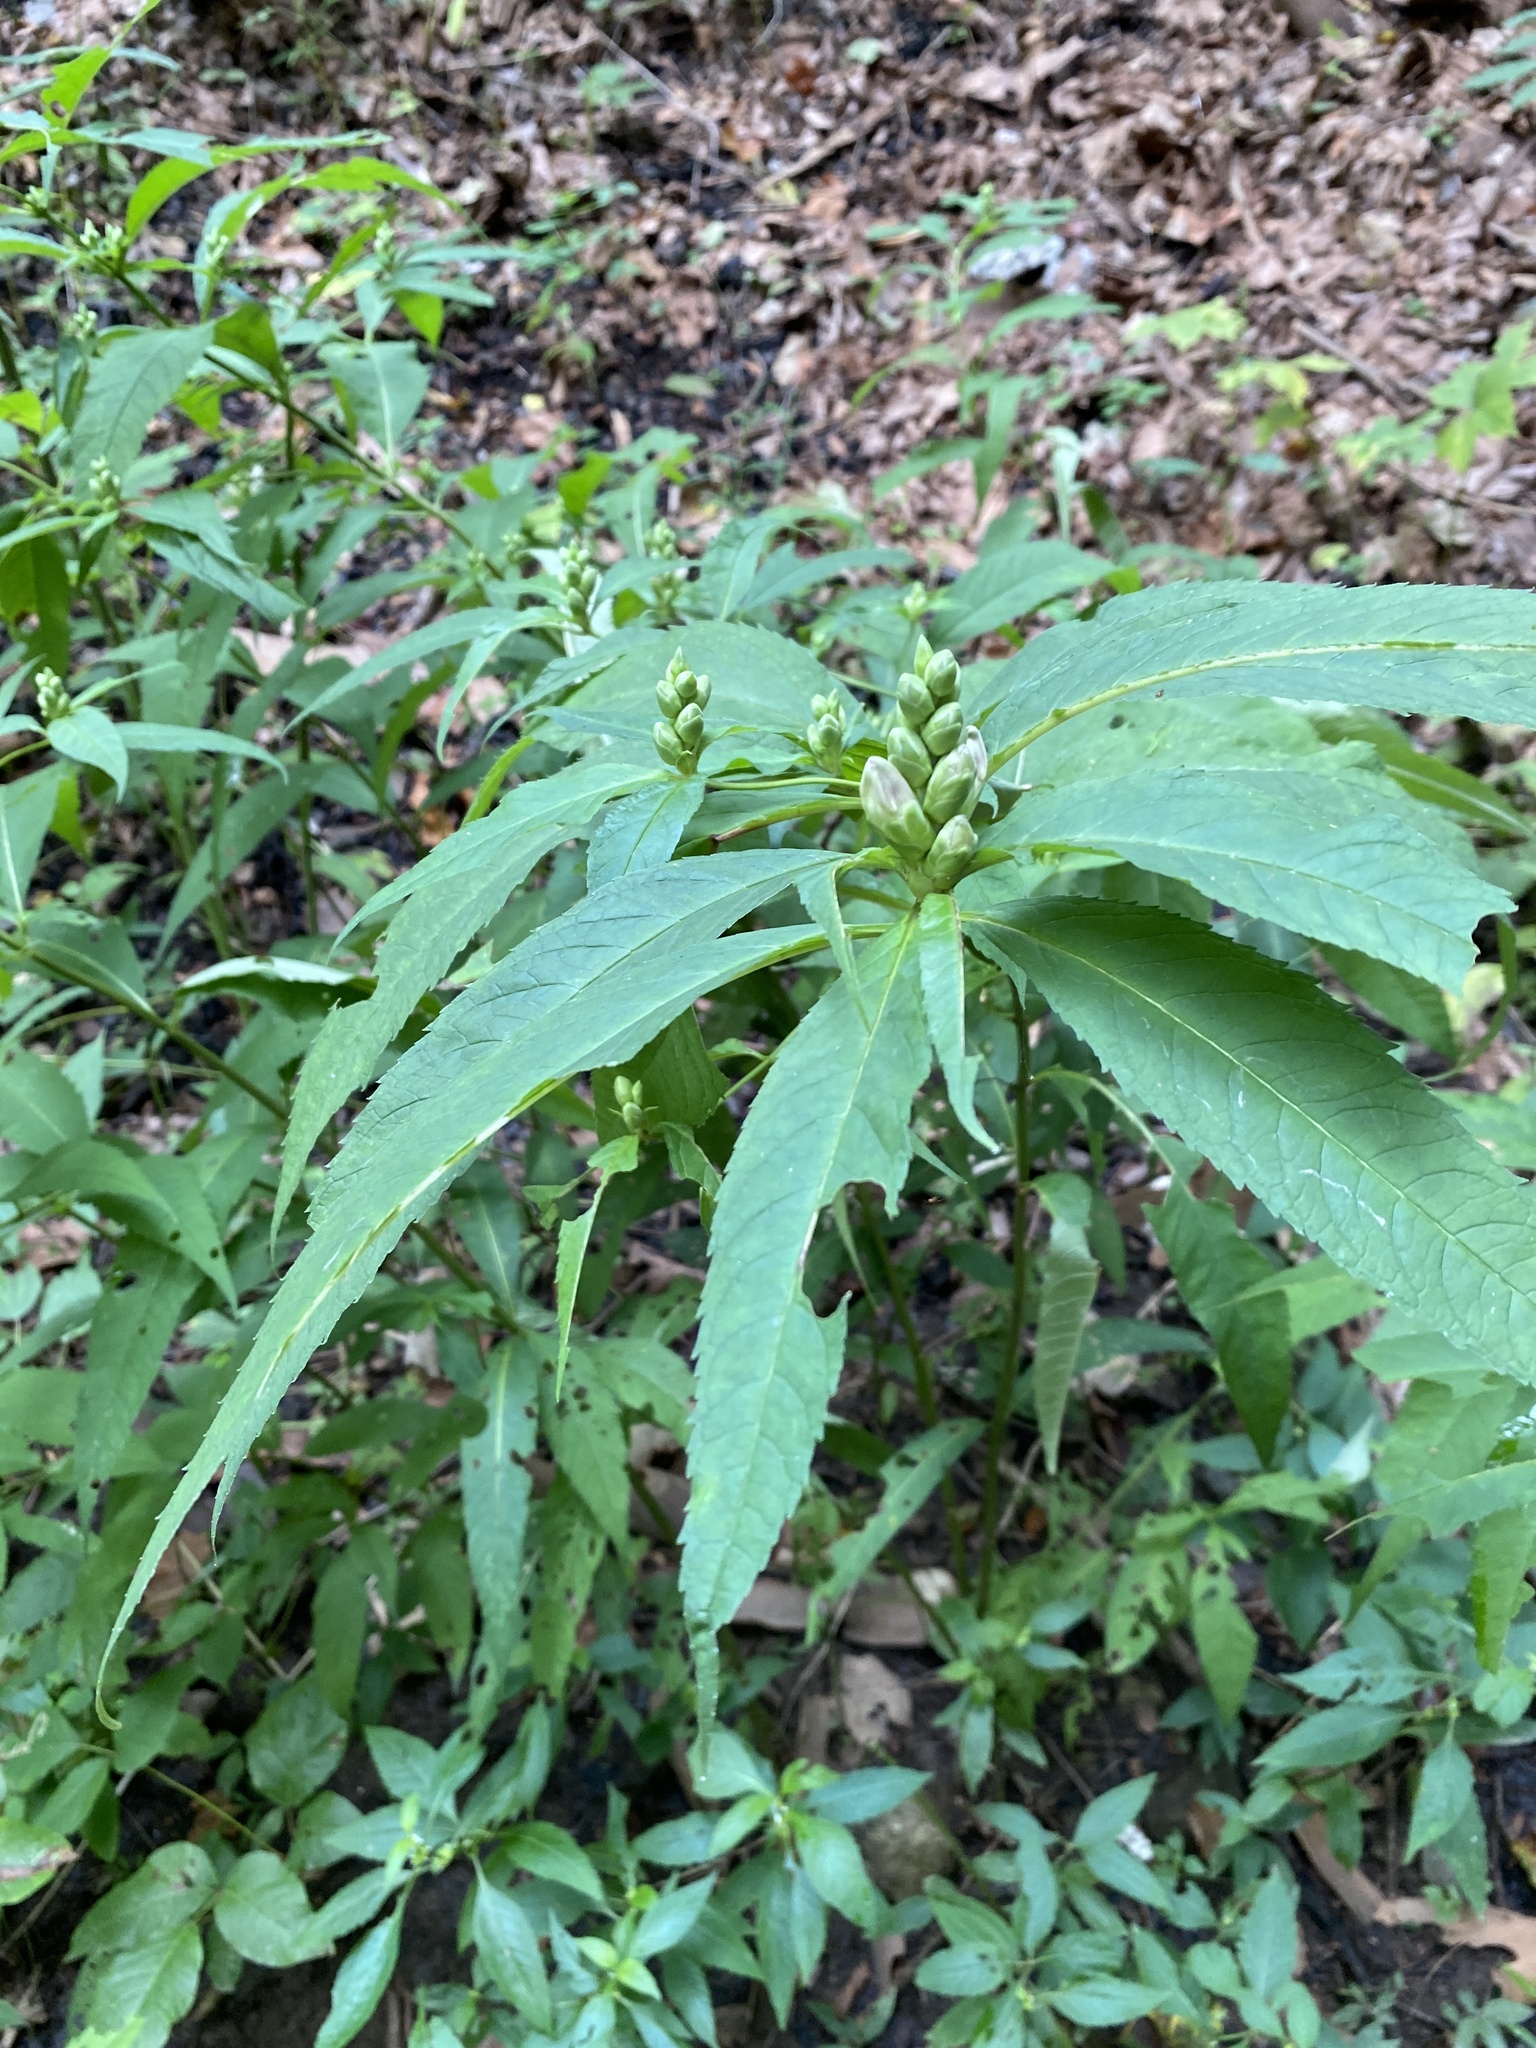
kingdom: Plantae
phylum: Tracheophyta
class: Magnoliopsida
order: Lamiales
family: Plantaginaceae
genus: Chelone
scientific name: Chelone glabra
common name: Snakehead
